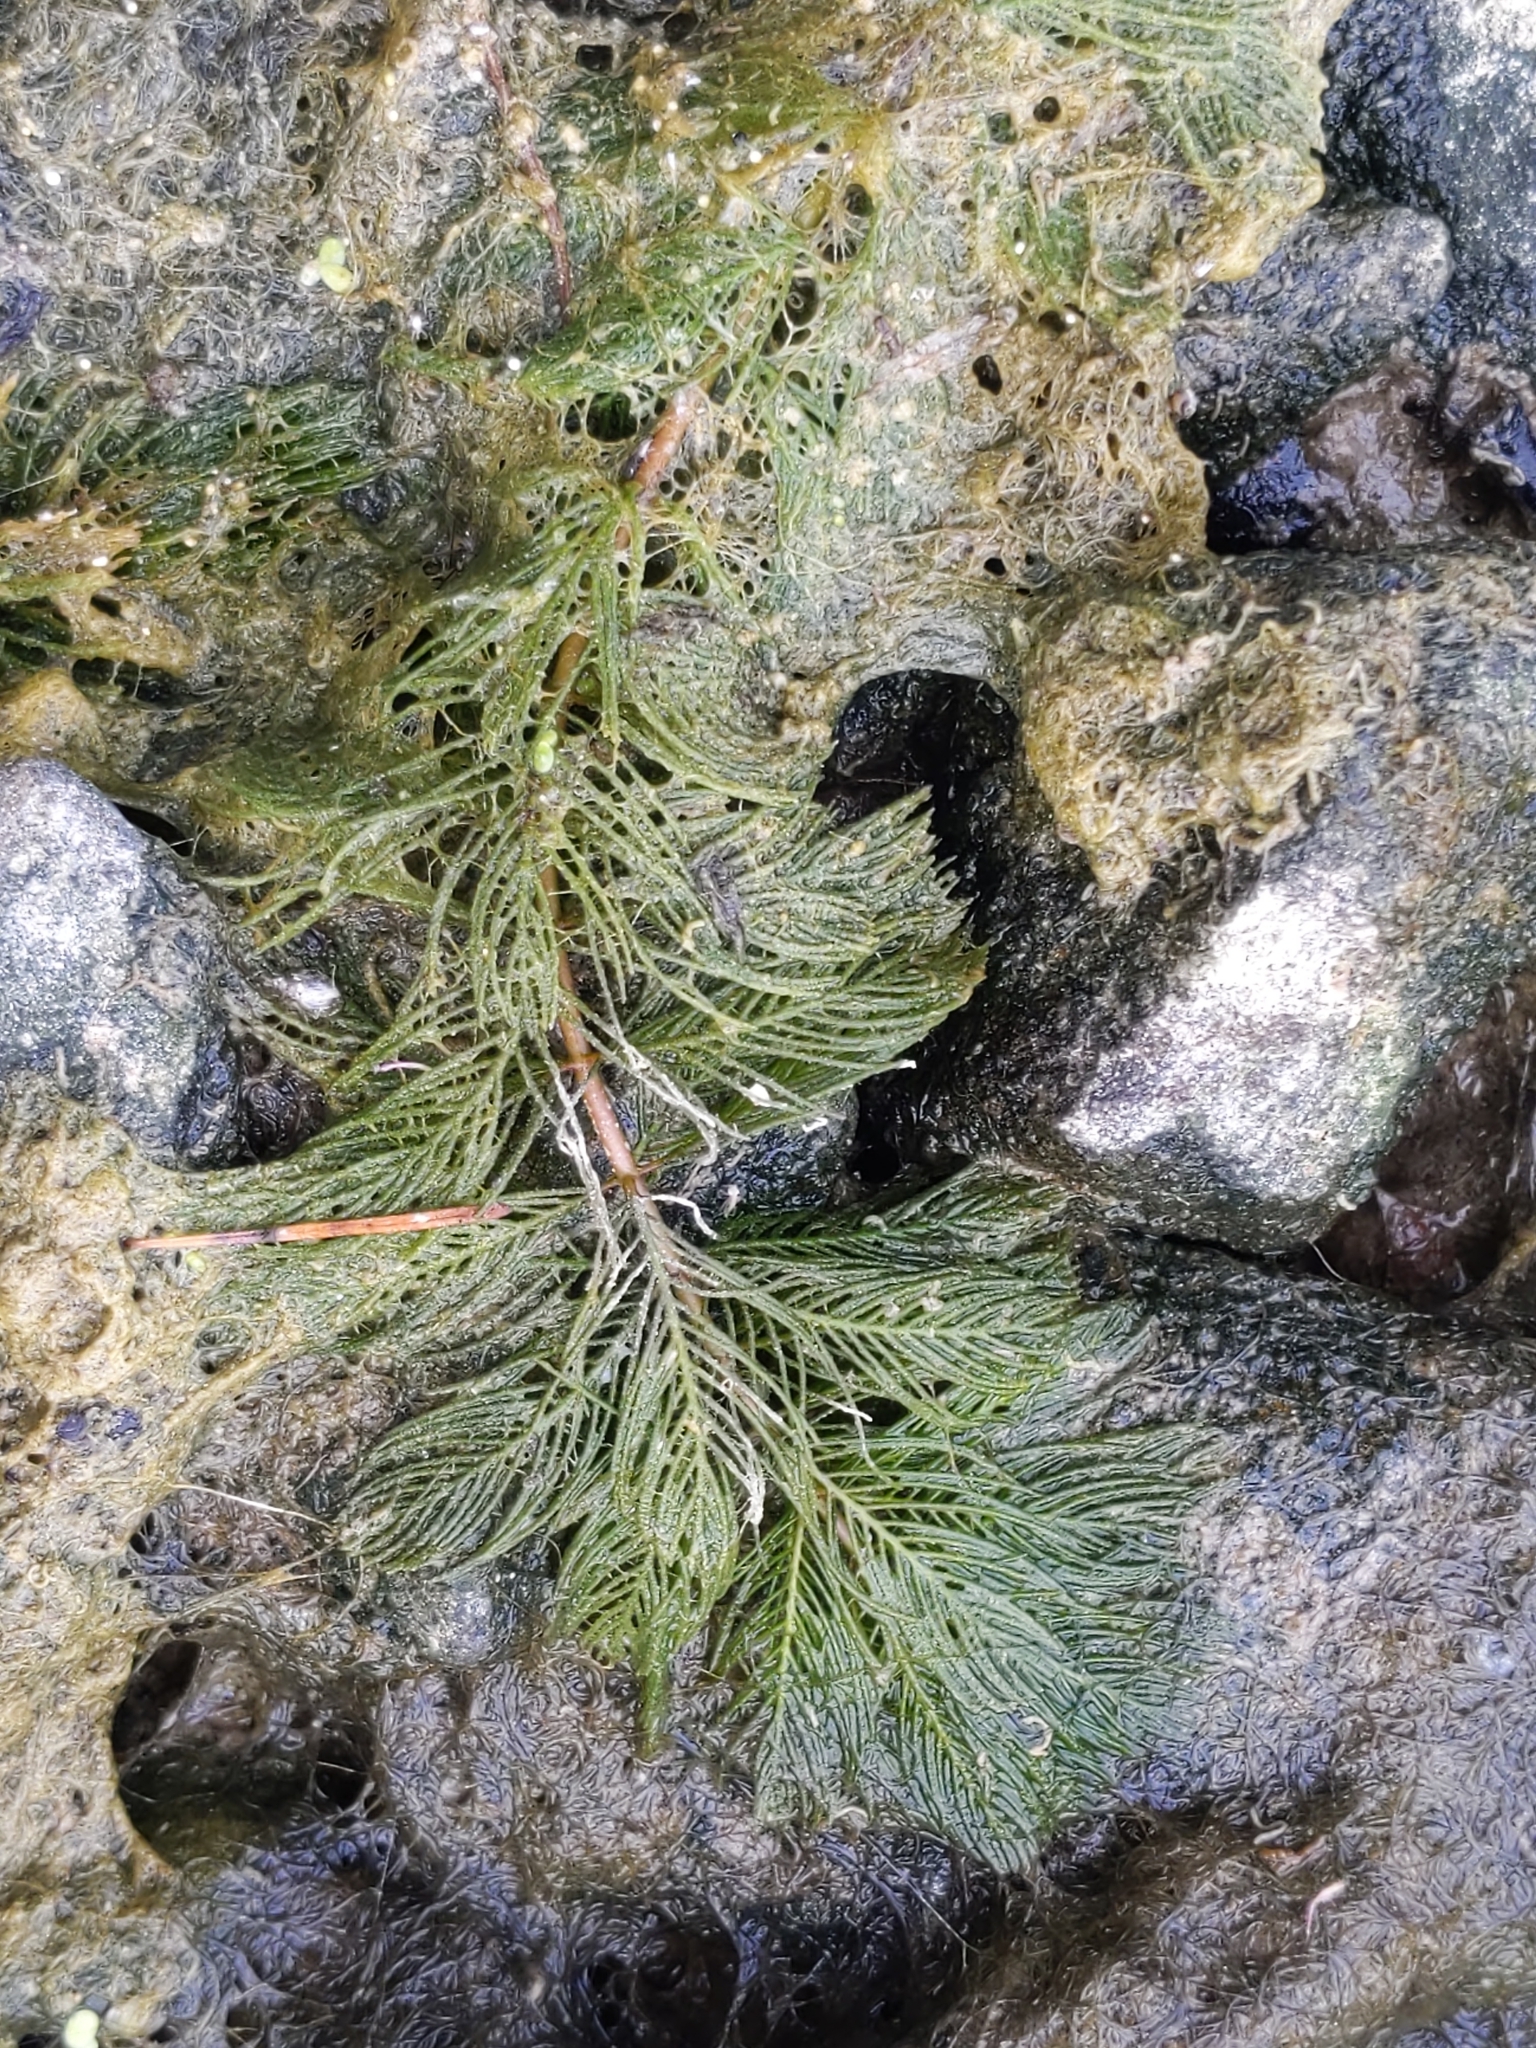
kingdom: Plantae
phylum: Tracheophyta
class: Magnoliopsida
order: Saxifragales
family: Haloragaceae
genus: Myriophyllum
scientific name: Myriophyllum spicatum
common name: Spiked water-milfoil
